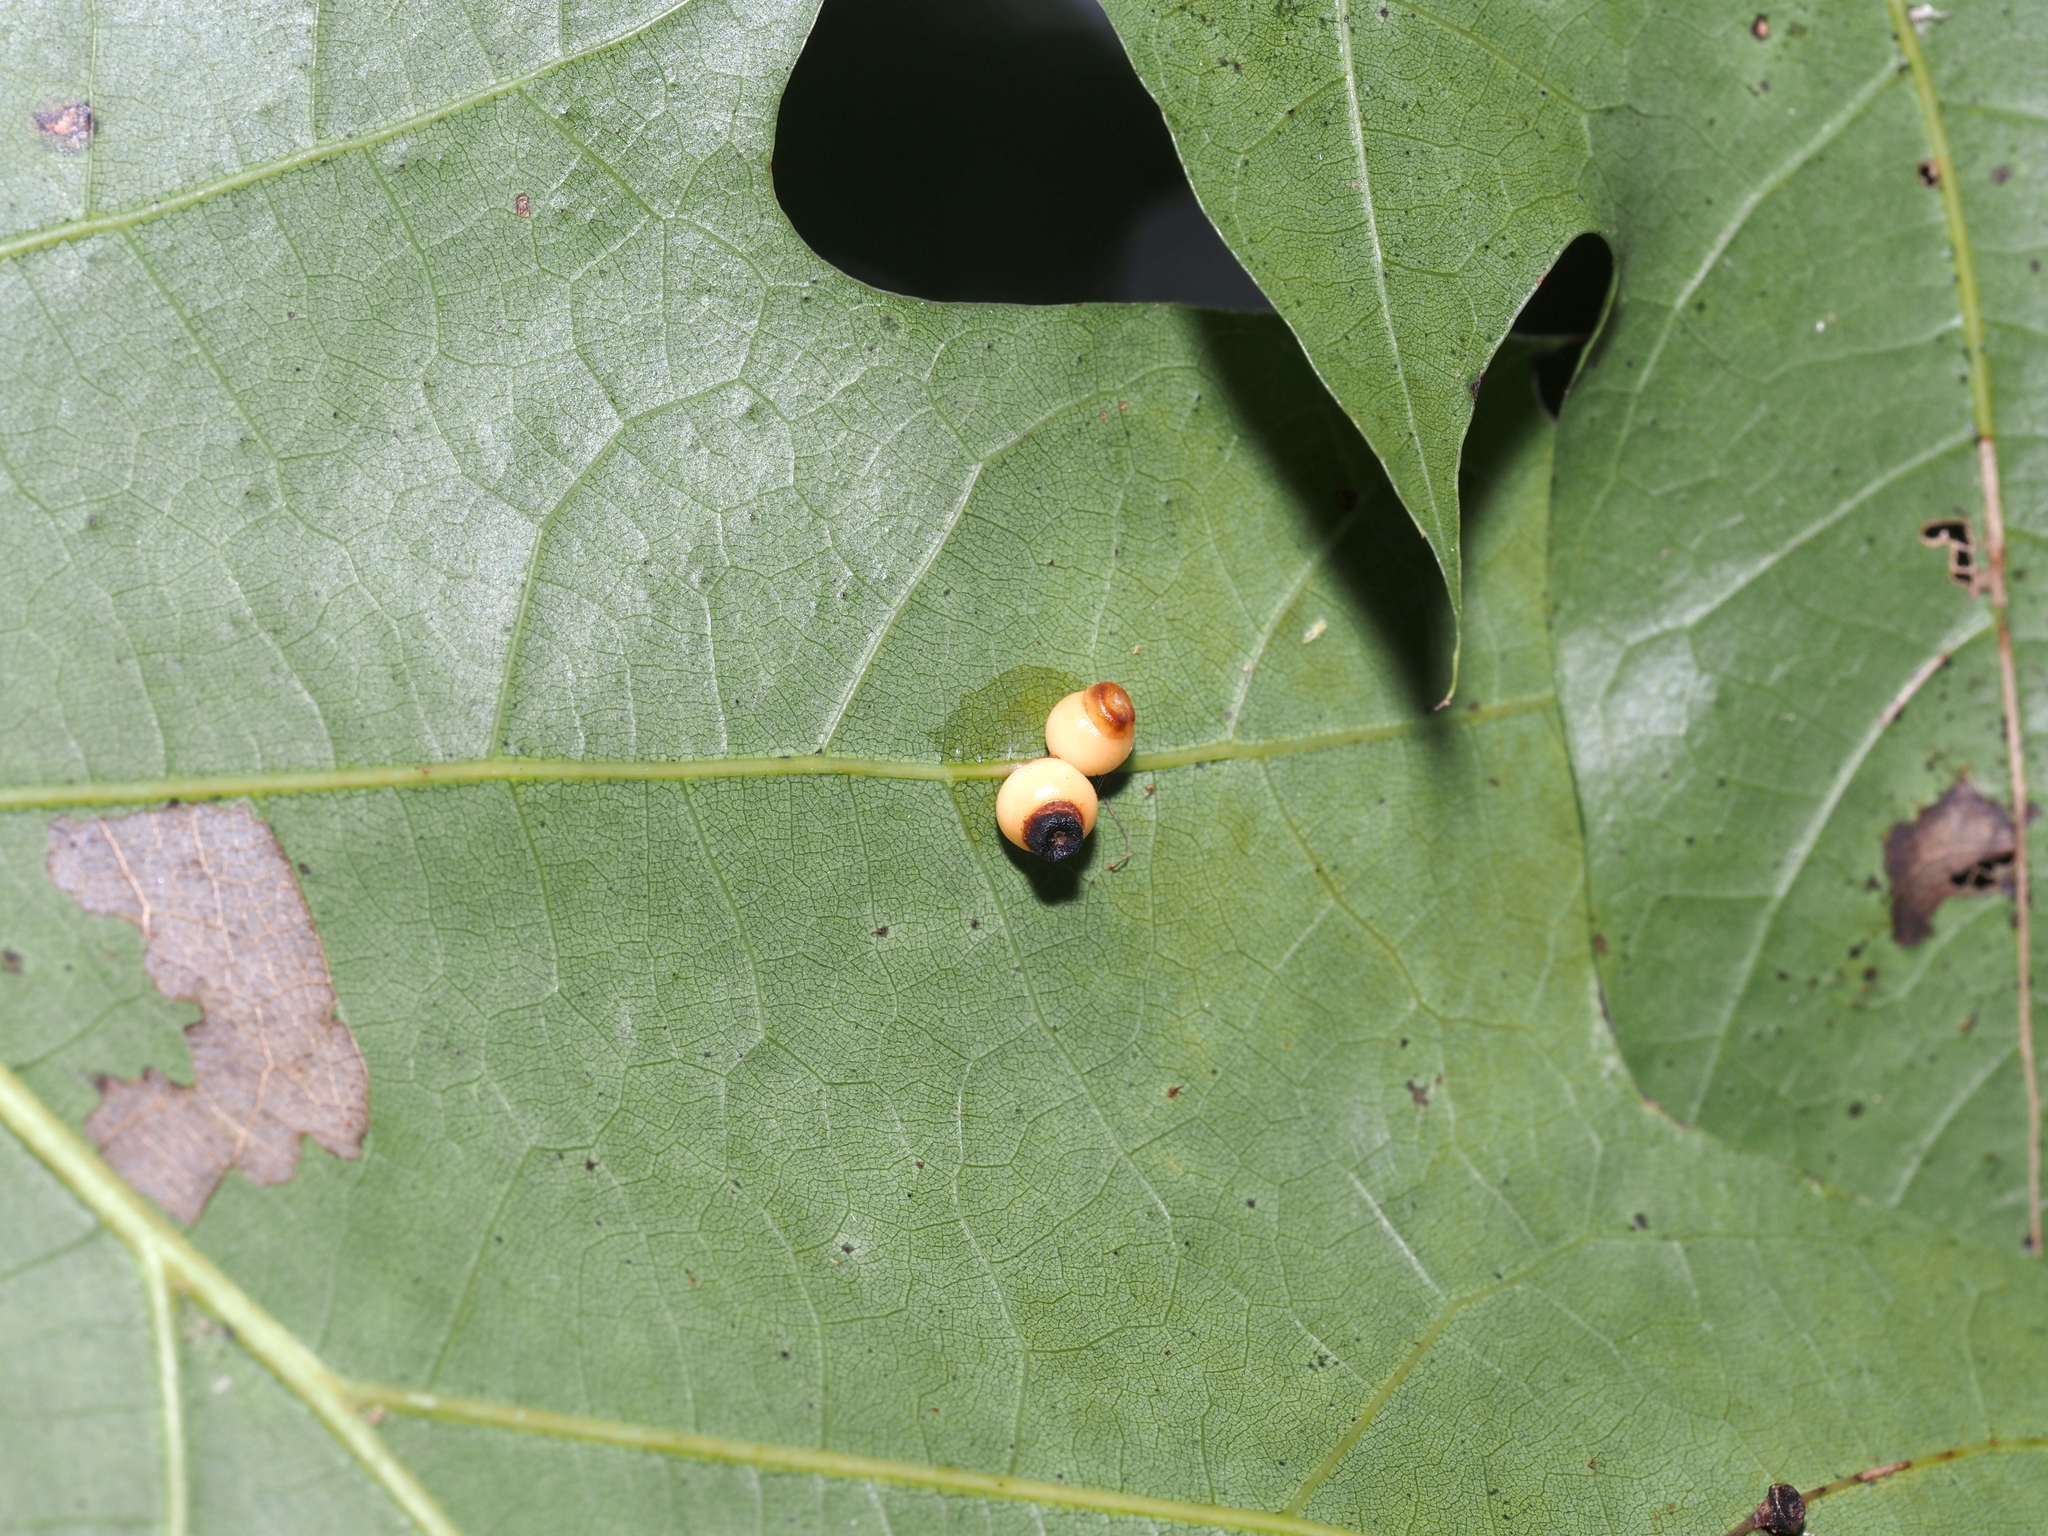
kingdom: Animalia
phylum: Arthropoda
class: Insecta
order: Hymenoptera
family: Cynipidae
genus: Kokkocynips
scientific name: Kokkocynips rileyi
